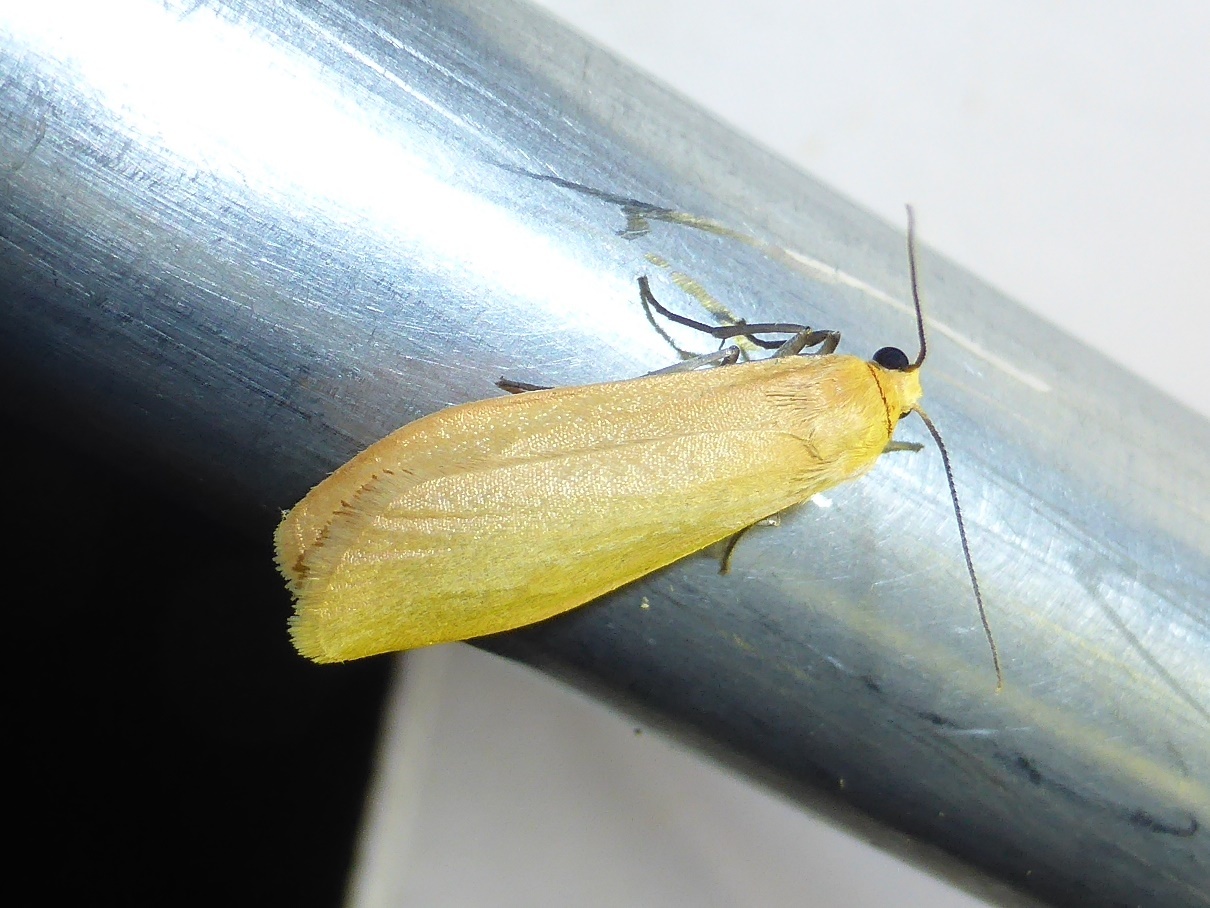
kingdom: Animalia
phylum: Arthropoda
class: Insecta
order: Lepidoptera
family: Erebidae
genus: Wittia
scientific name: Wittia sororcula
